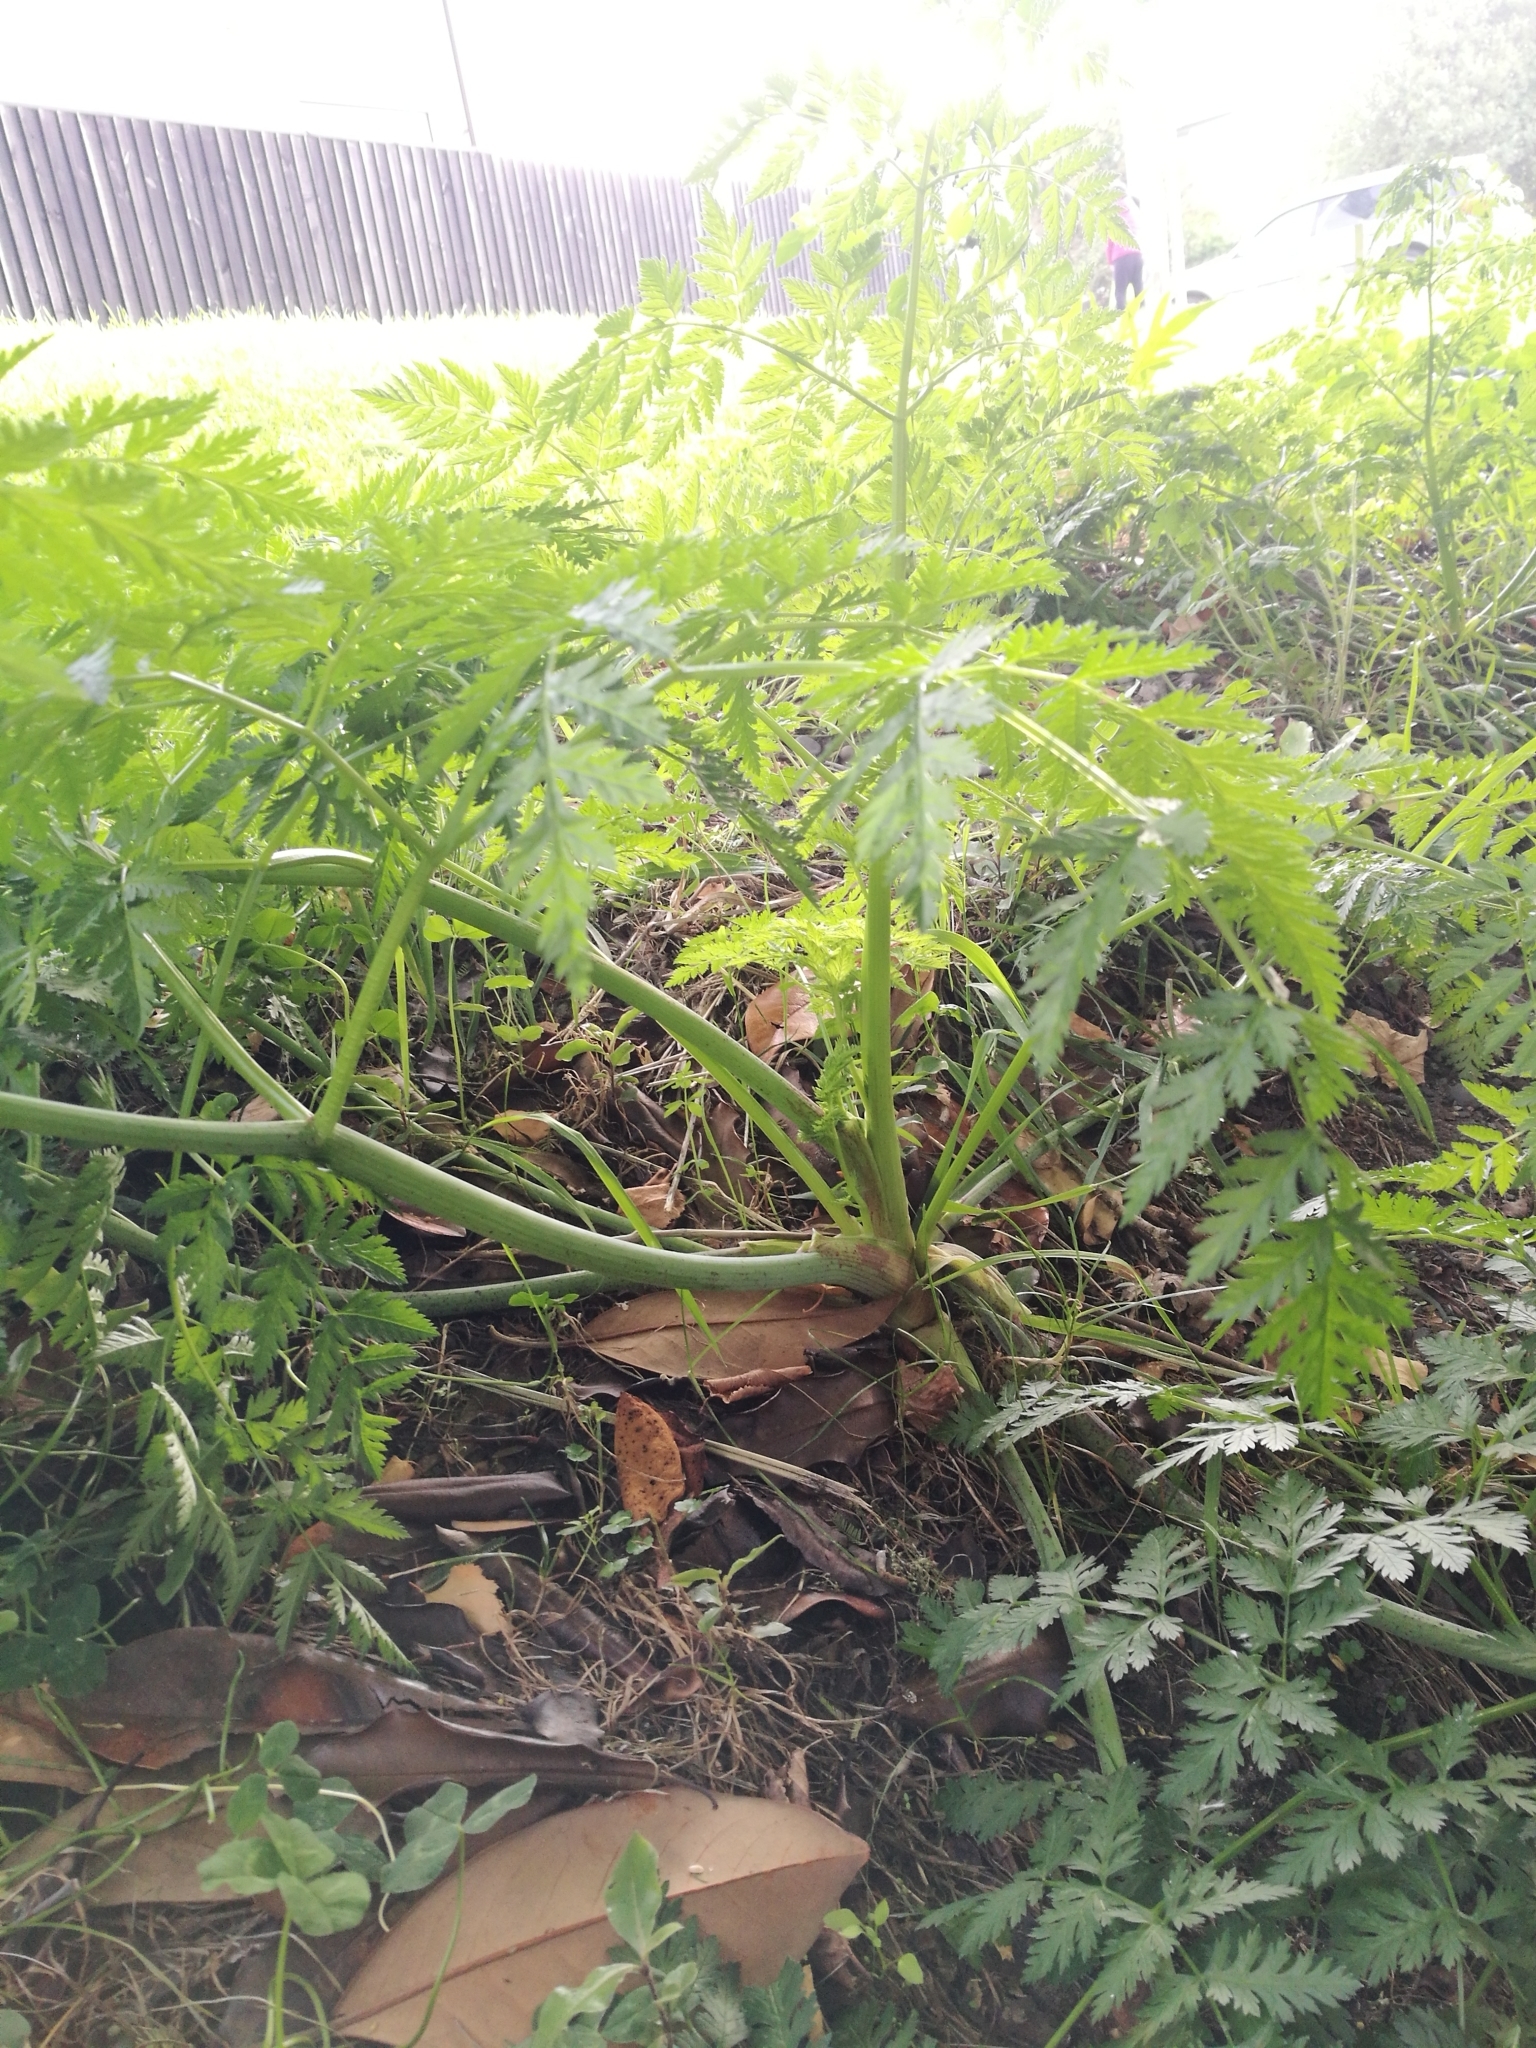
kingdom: Plantae
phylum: Tracheophyta
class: Magnoliopsida
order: Apiales
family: Apiaceae
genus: Conium
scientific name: Conium maculatum
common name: Hemlock
